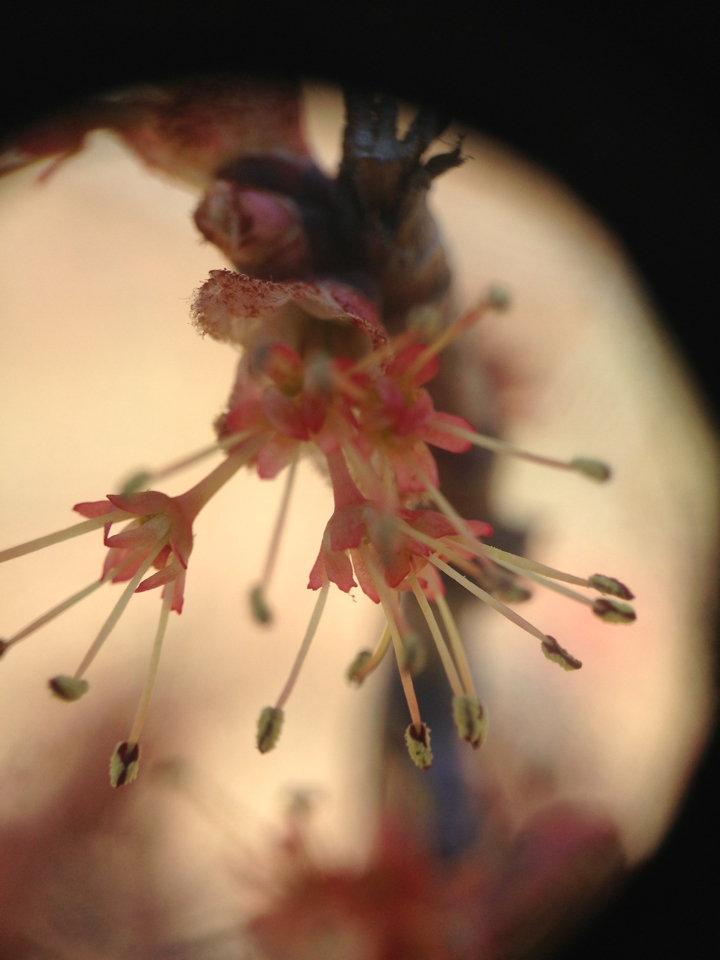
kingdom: Plantae
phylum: Tracheophyta
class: Magnoliopsida
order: Sapindales
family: Sapindaceae
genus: Acer
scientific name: Acer rubrum
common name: Red maple
